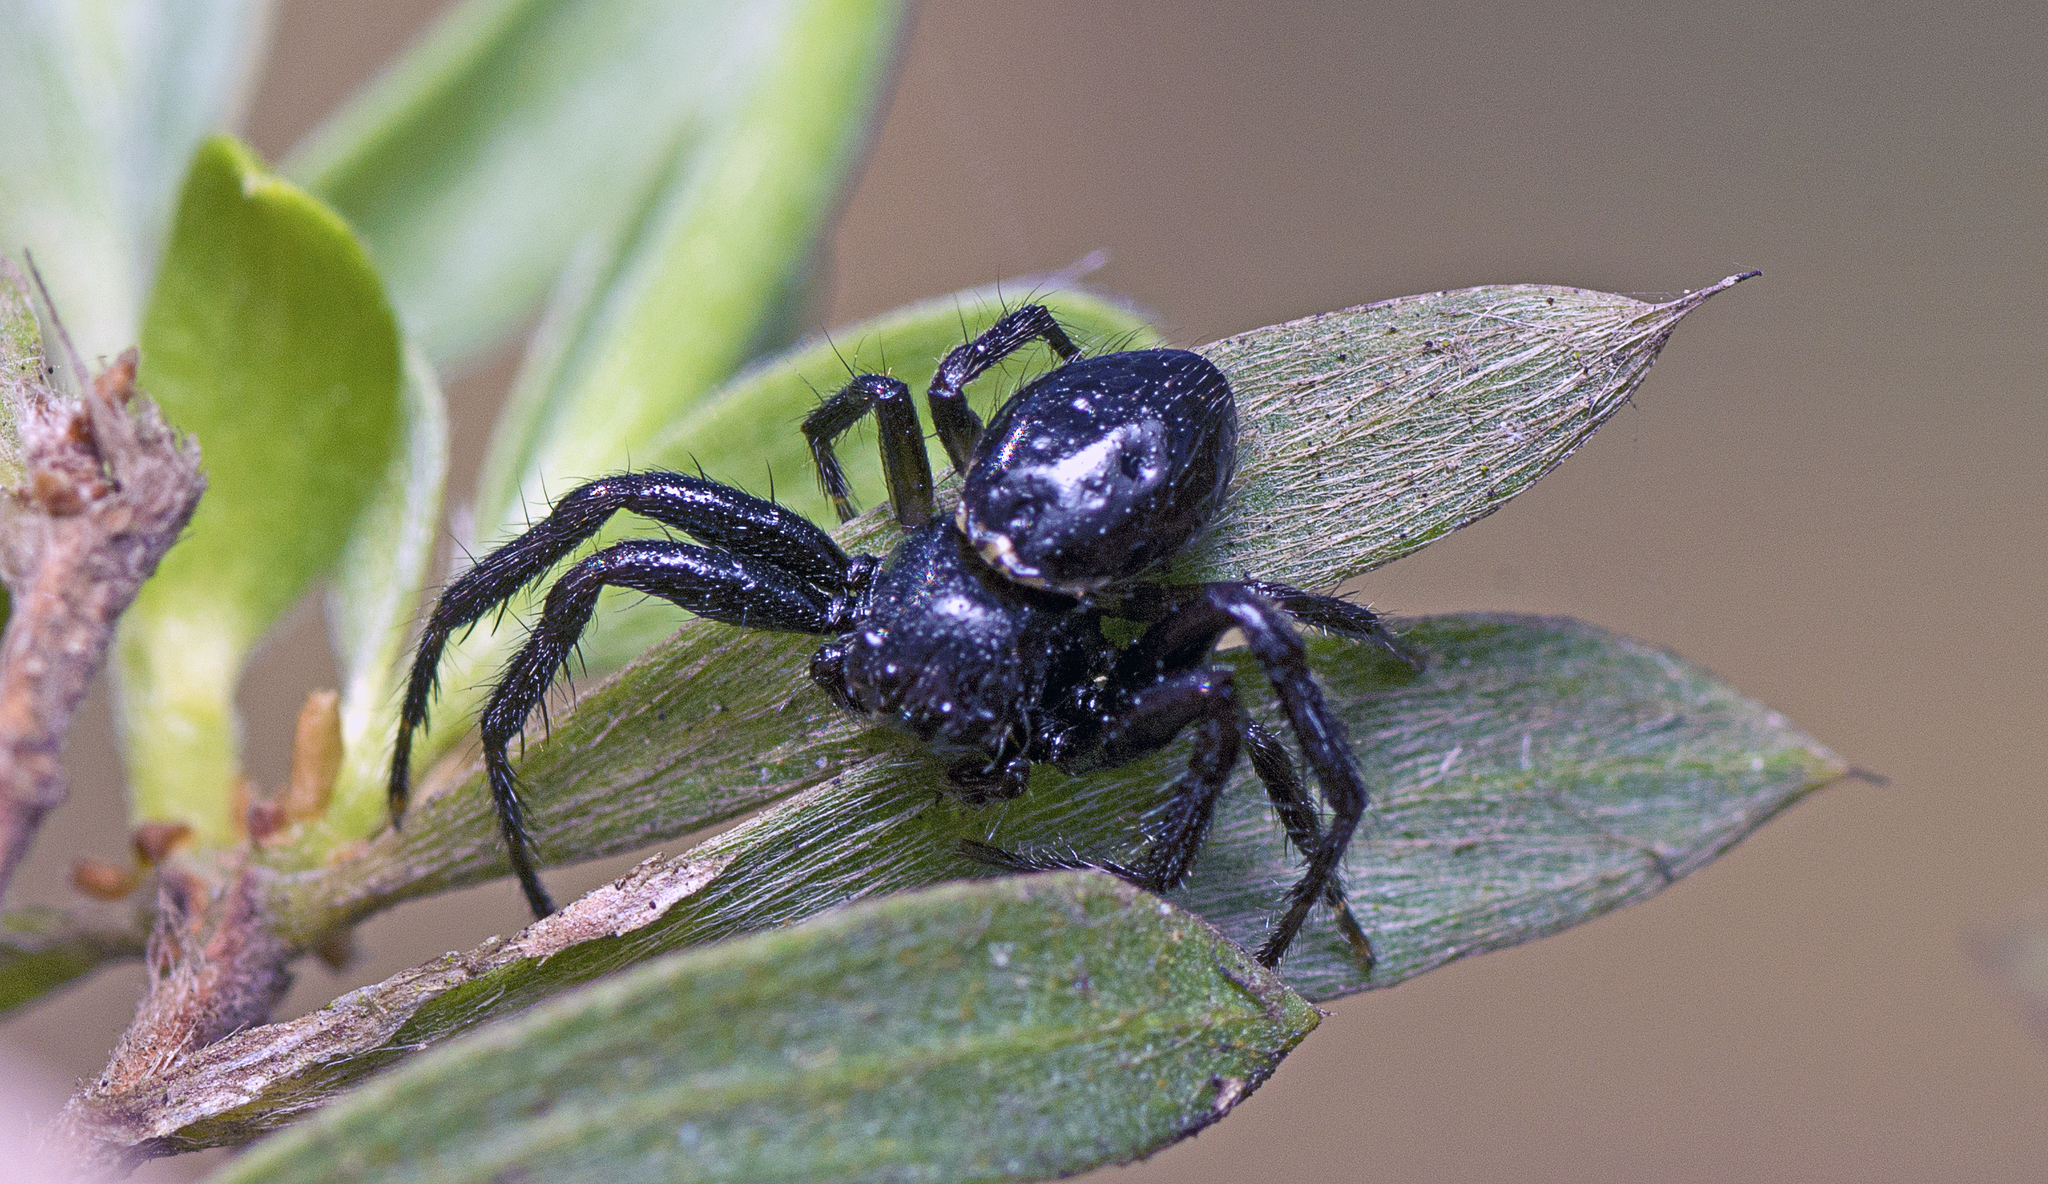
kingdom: Animalia
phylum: Arthropoda
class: Arachnida
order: Araneae
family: Thomisidae
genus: Xysticus
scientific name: Xysticus bimaculatus
